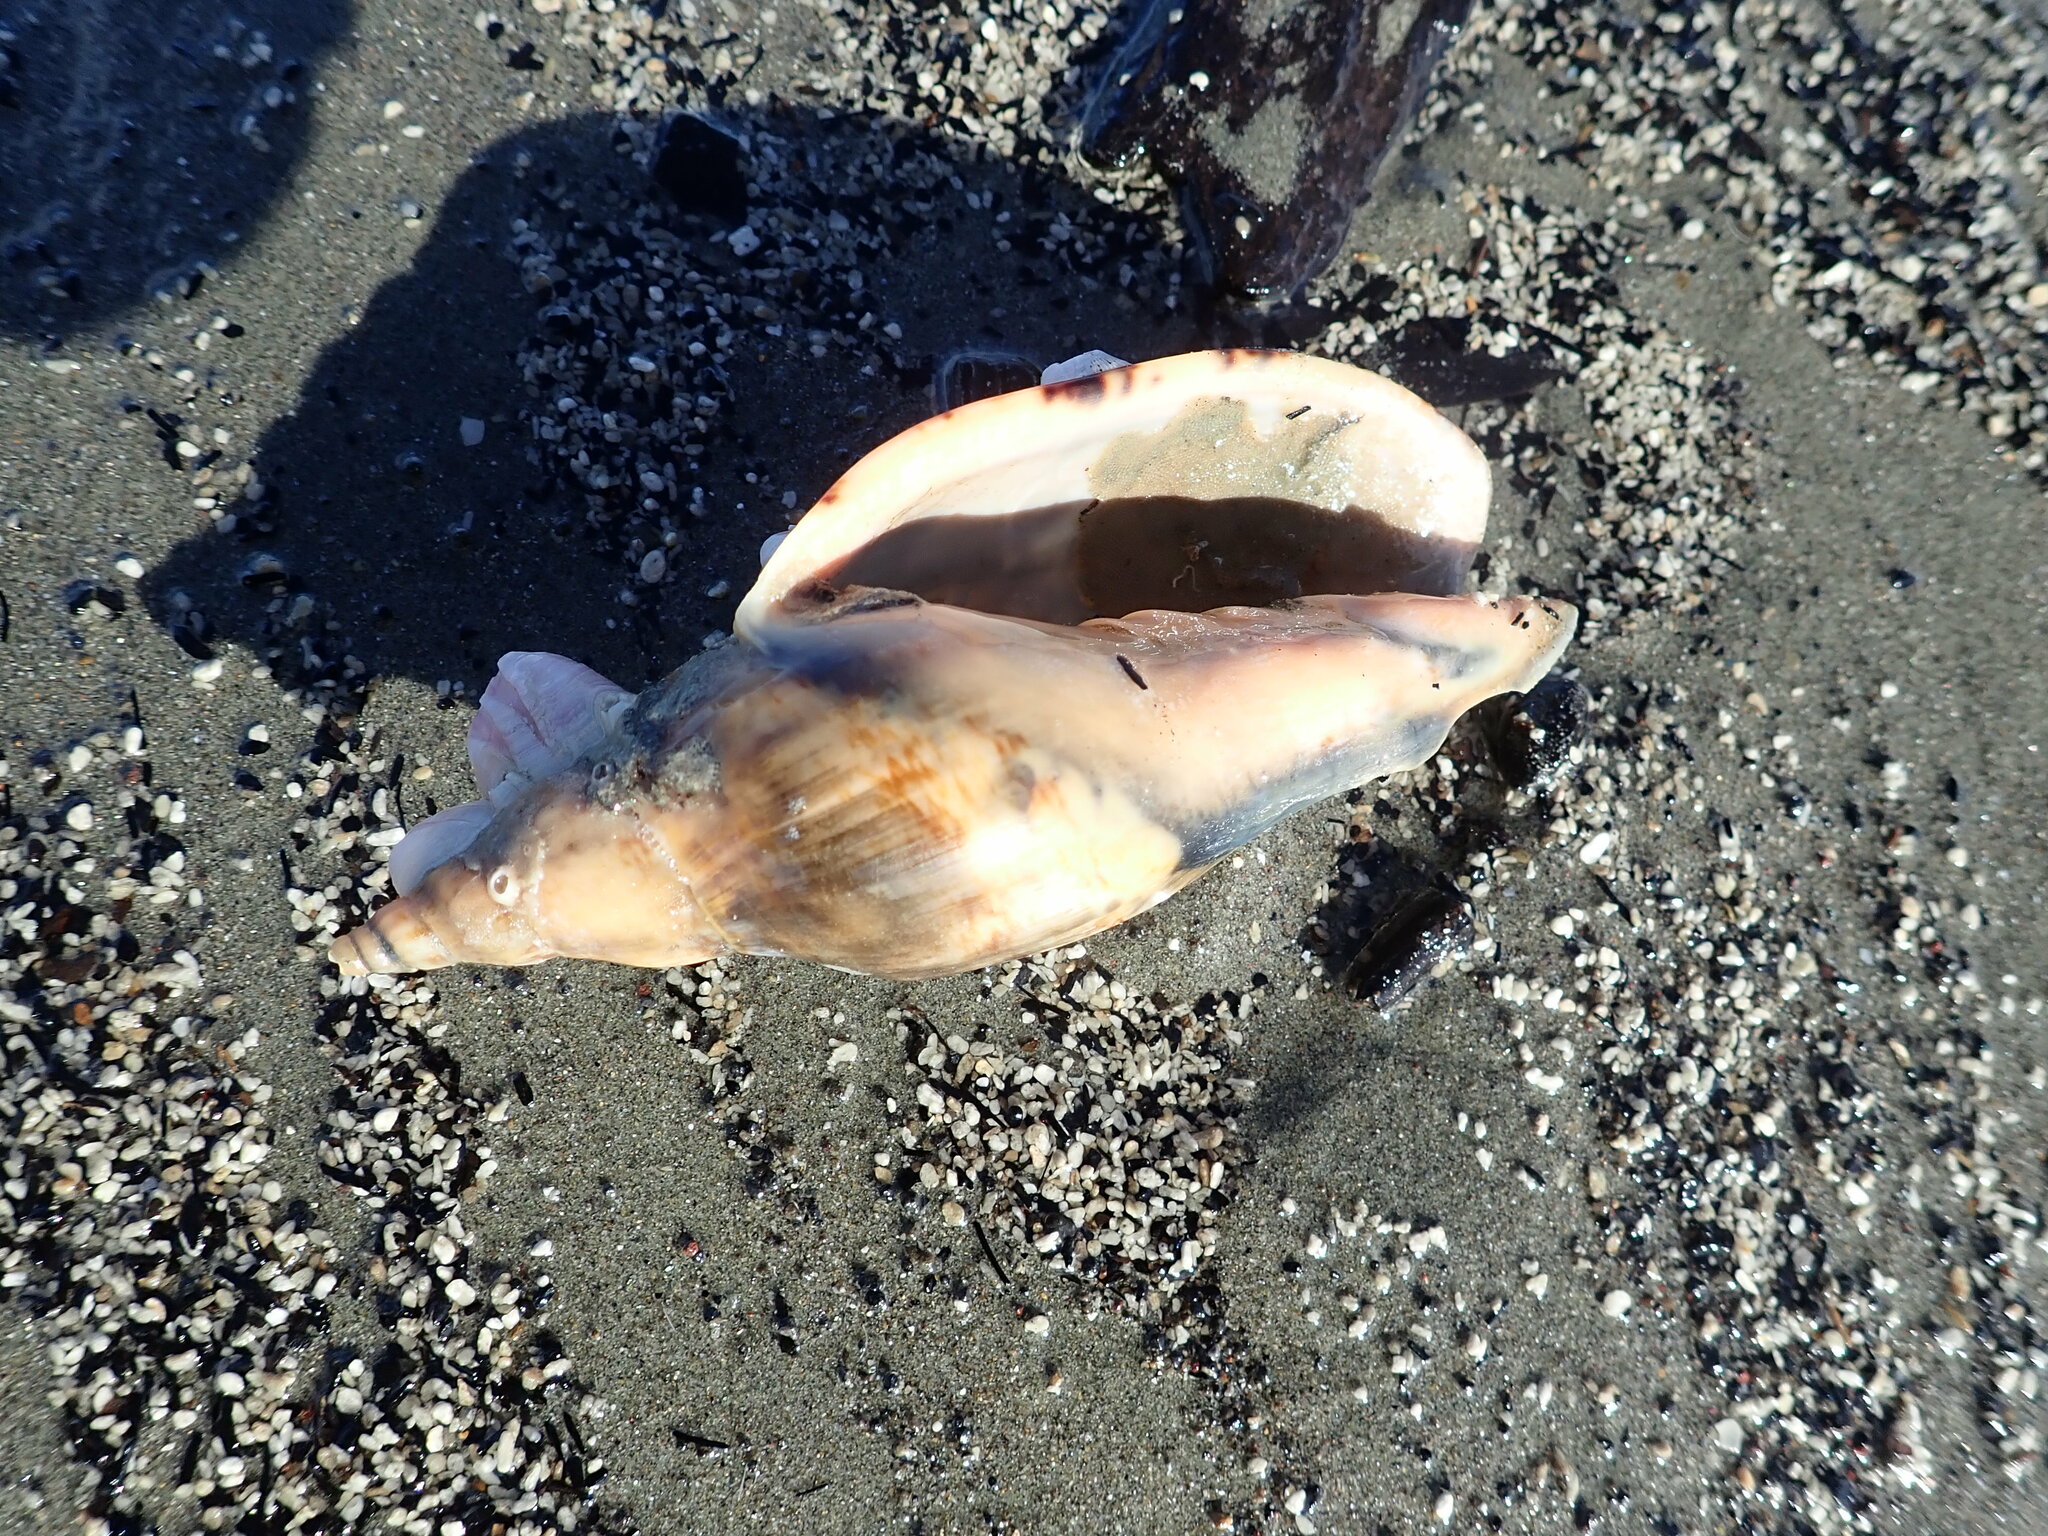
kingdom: Animalia
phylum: Mollusca
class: Gastropoda
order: Neogastropoda
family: Volutidae
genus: Alcithoe
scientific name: Alcithoe arabica
